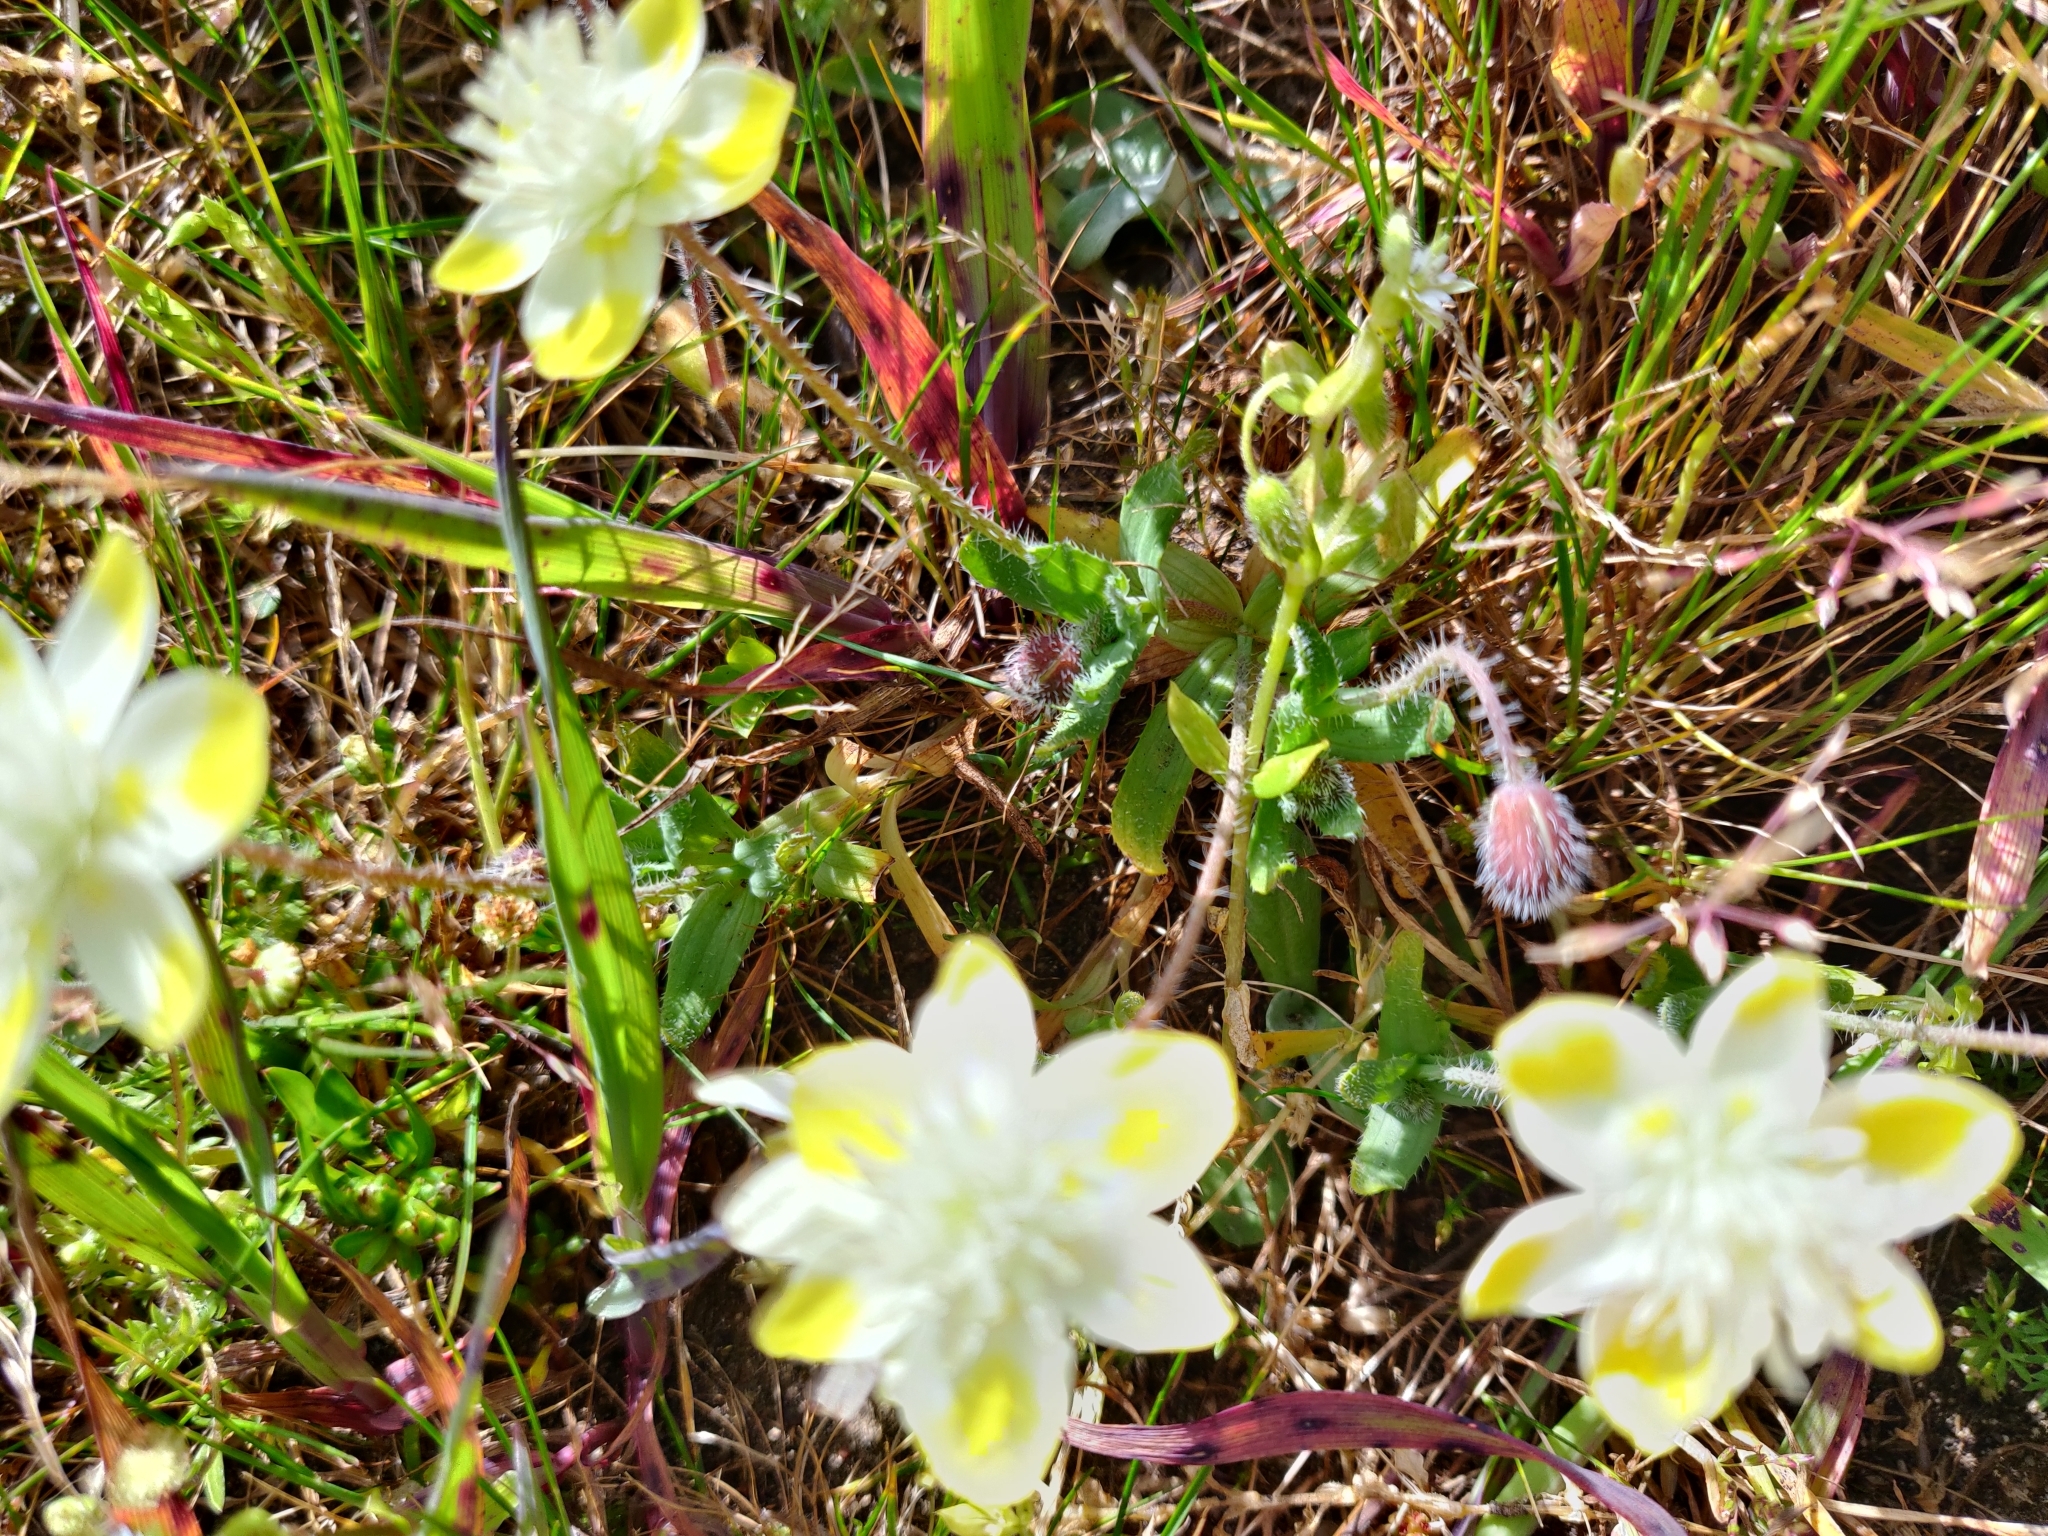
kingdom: Plantae
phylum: Tracheophyta
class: Magnoliopsida
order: Ranunculales
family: Papaveraceae
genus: Platystemon
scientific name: Platystemon californicus
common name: Cream-cups
